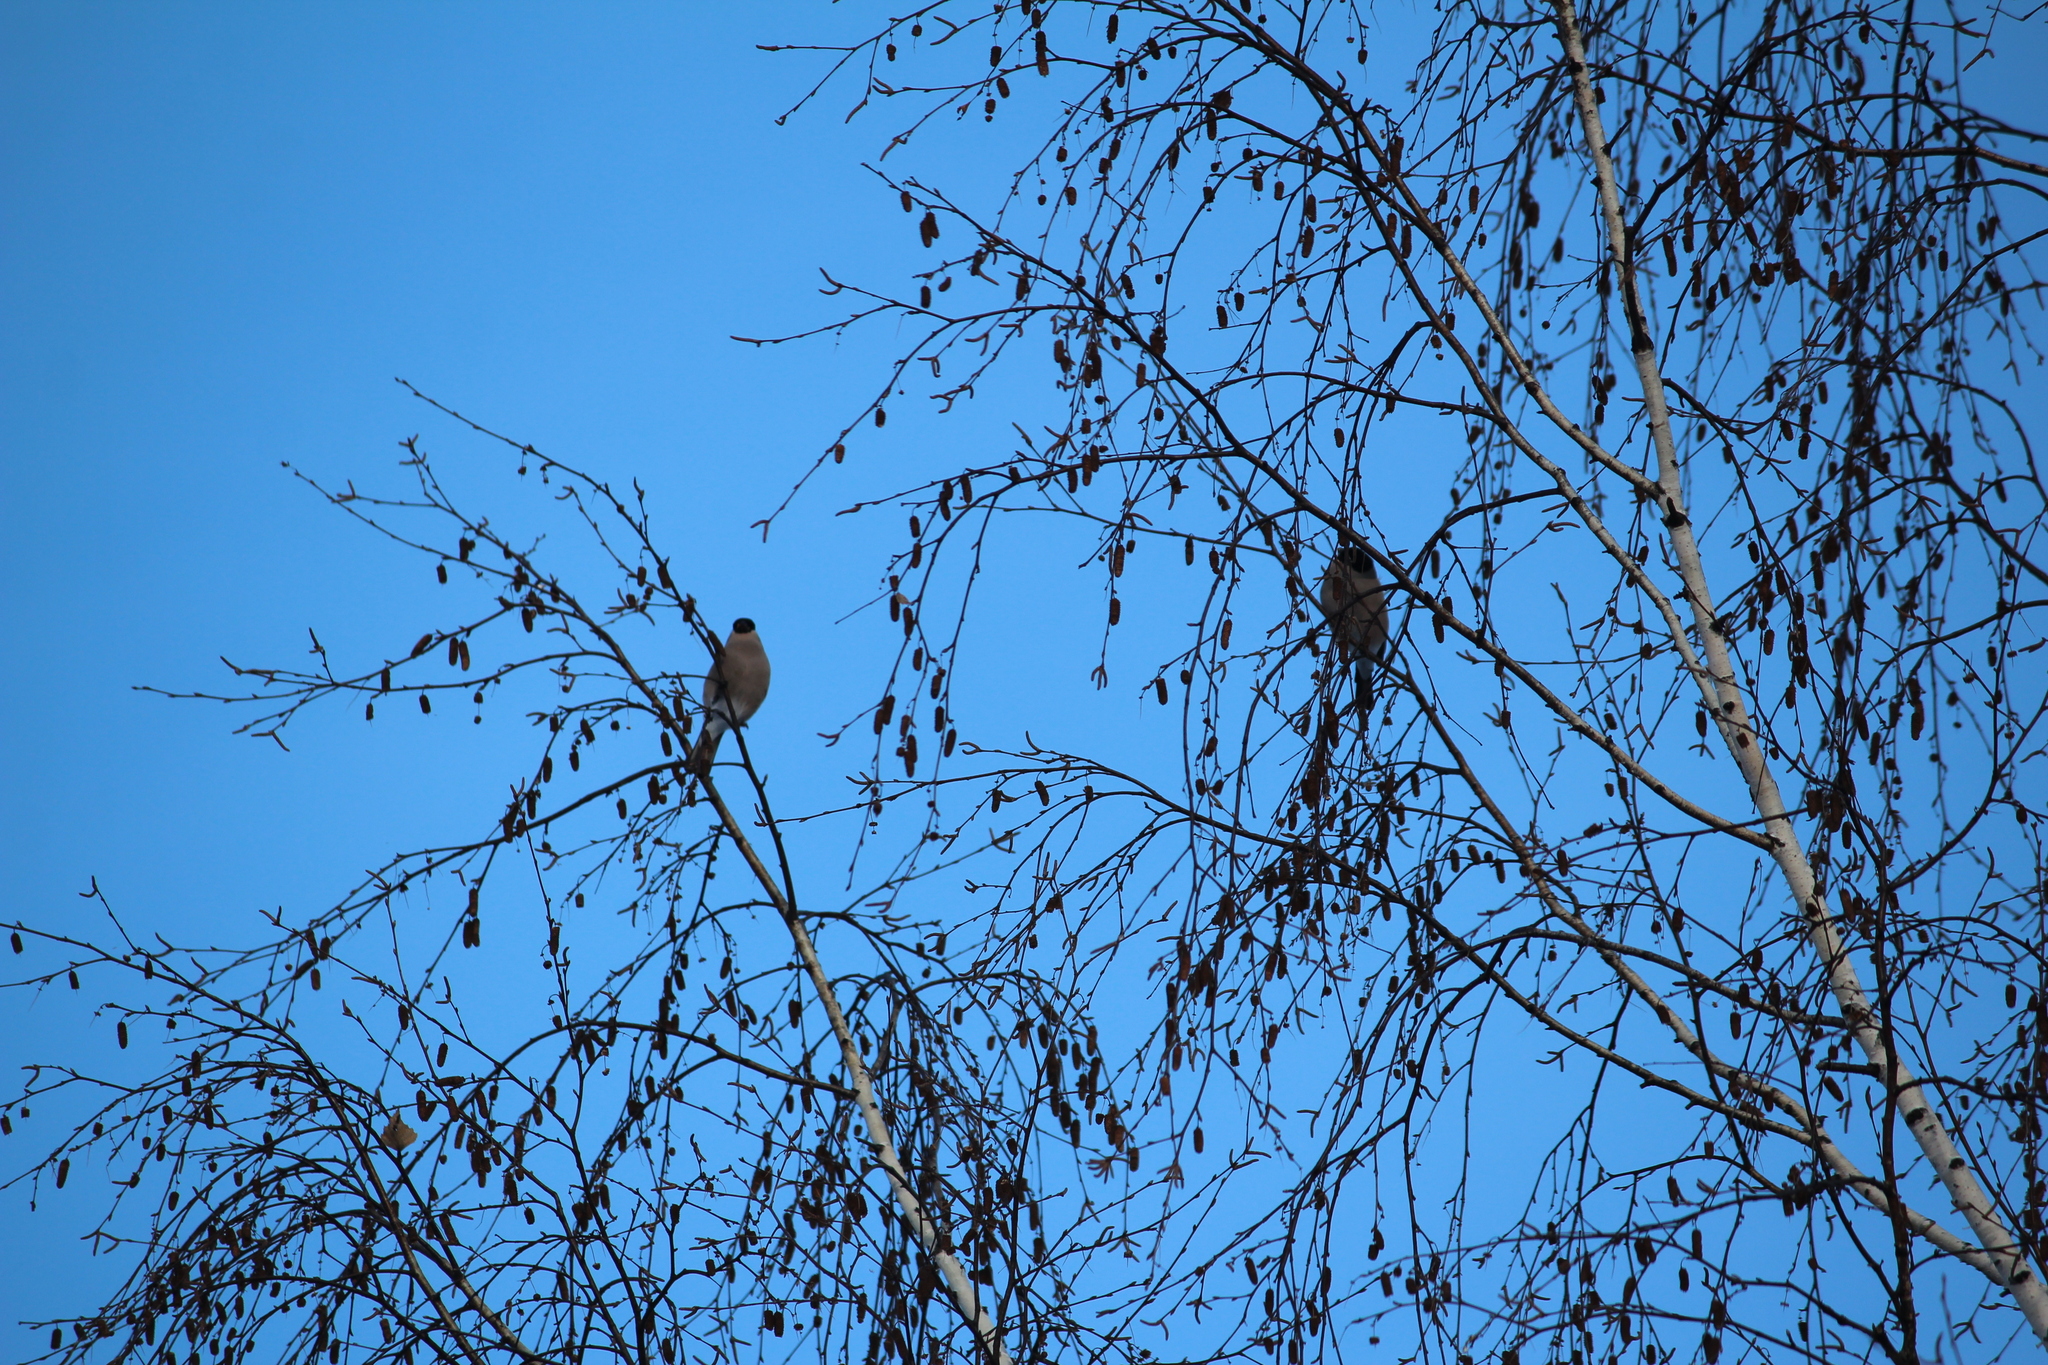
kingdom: Animalia
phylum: Chordata
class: Aves
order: Passeriformes
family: Fringillidae
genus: Pyrrhula
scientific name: Pyrrhula pyrrhula
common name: Eurasian bullfinch
